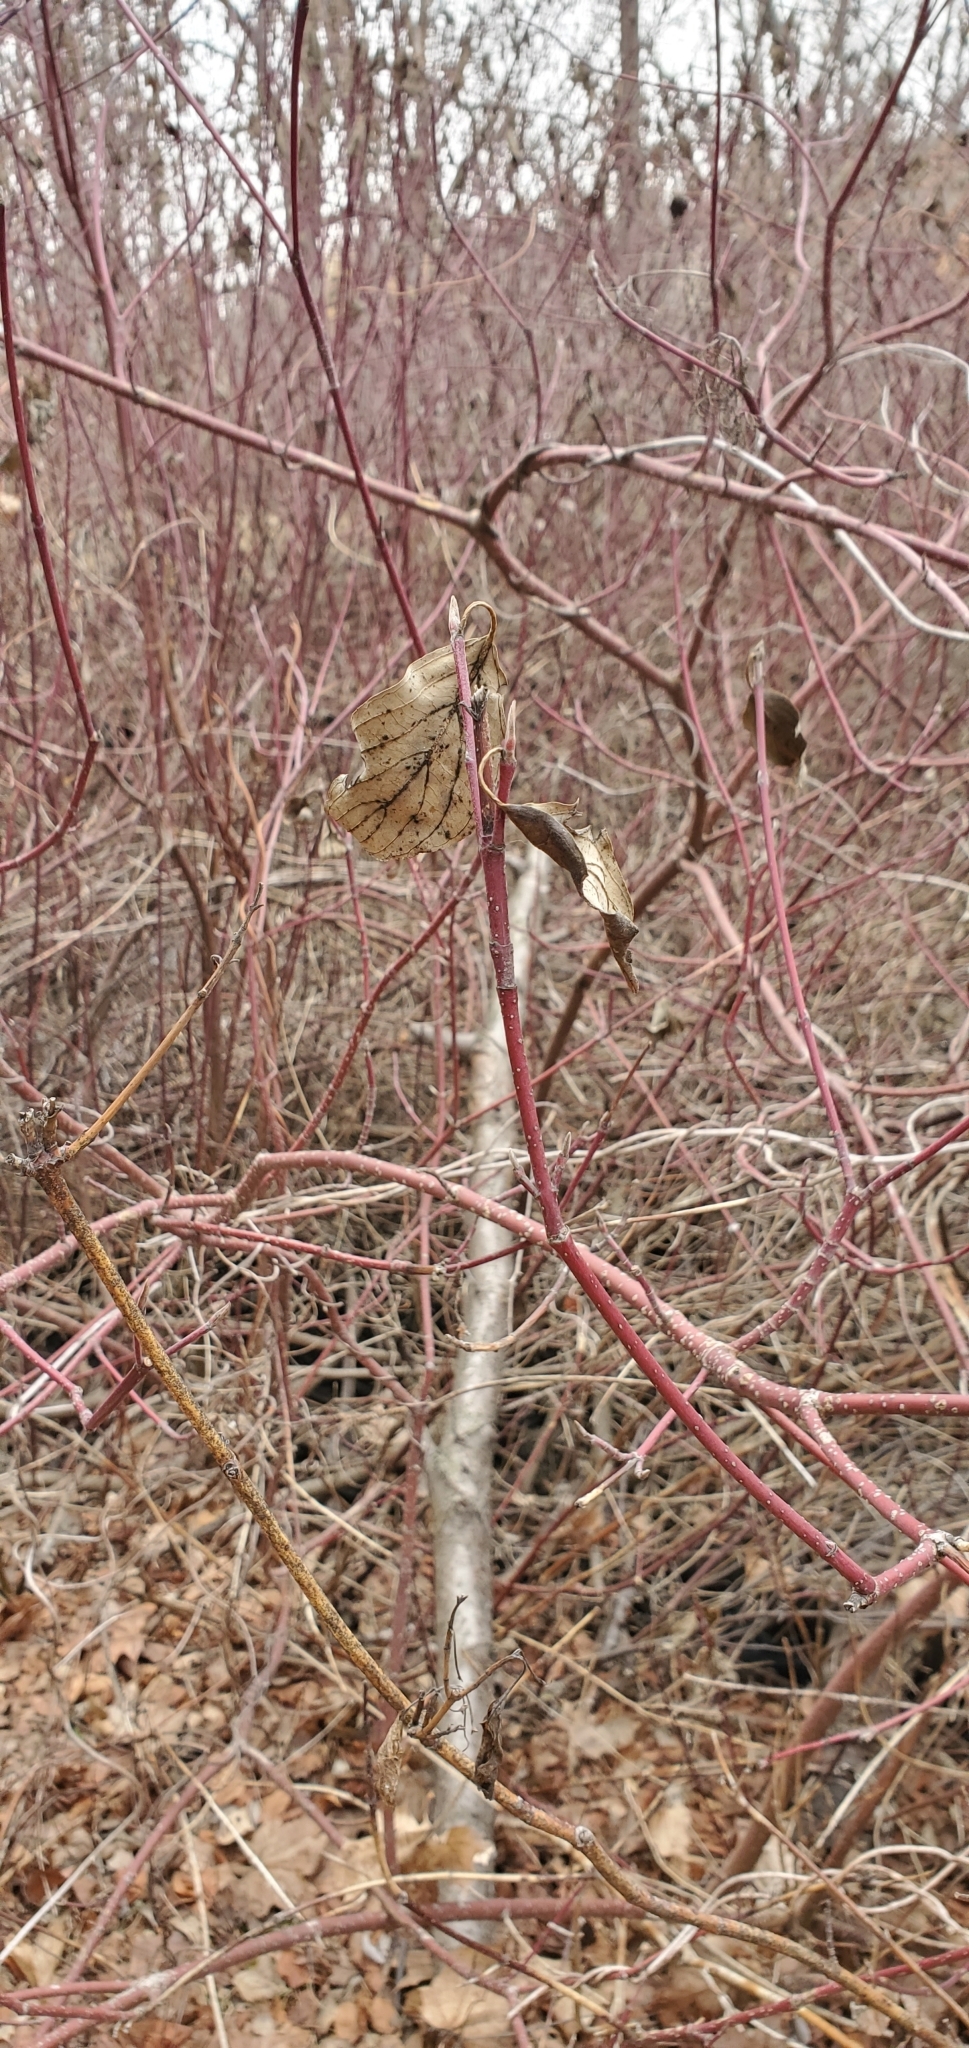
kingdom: Plantae
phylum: Tracheophyta
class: Magnoliopsida
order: Cornales
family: Cornaceae
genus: Cornus
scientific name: Cornus sericea
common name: Red-osier dogwood
